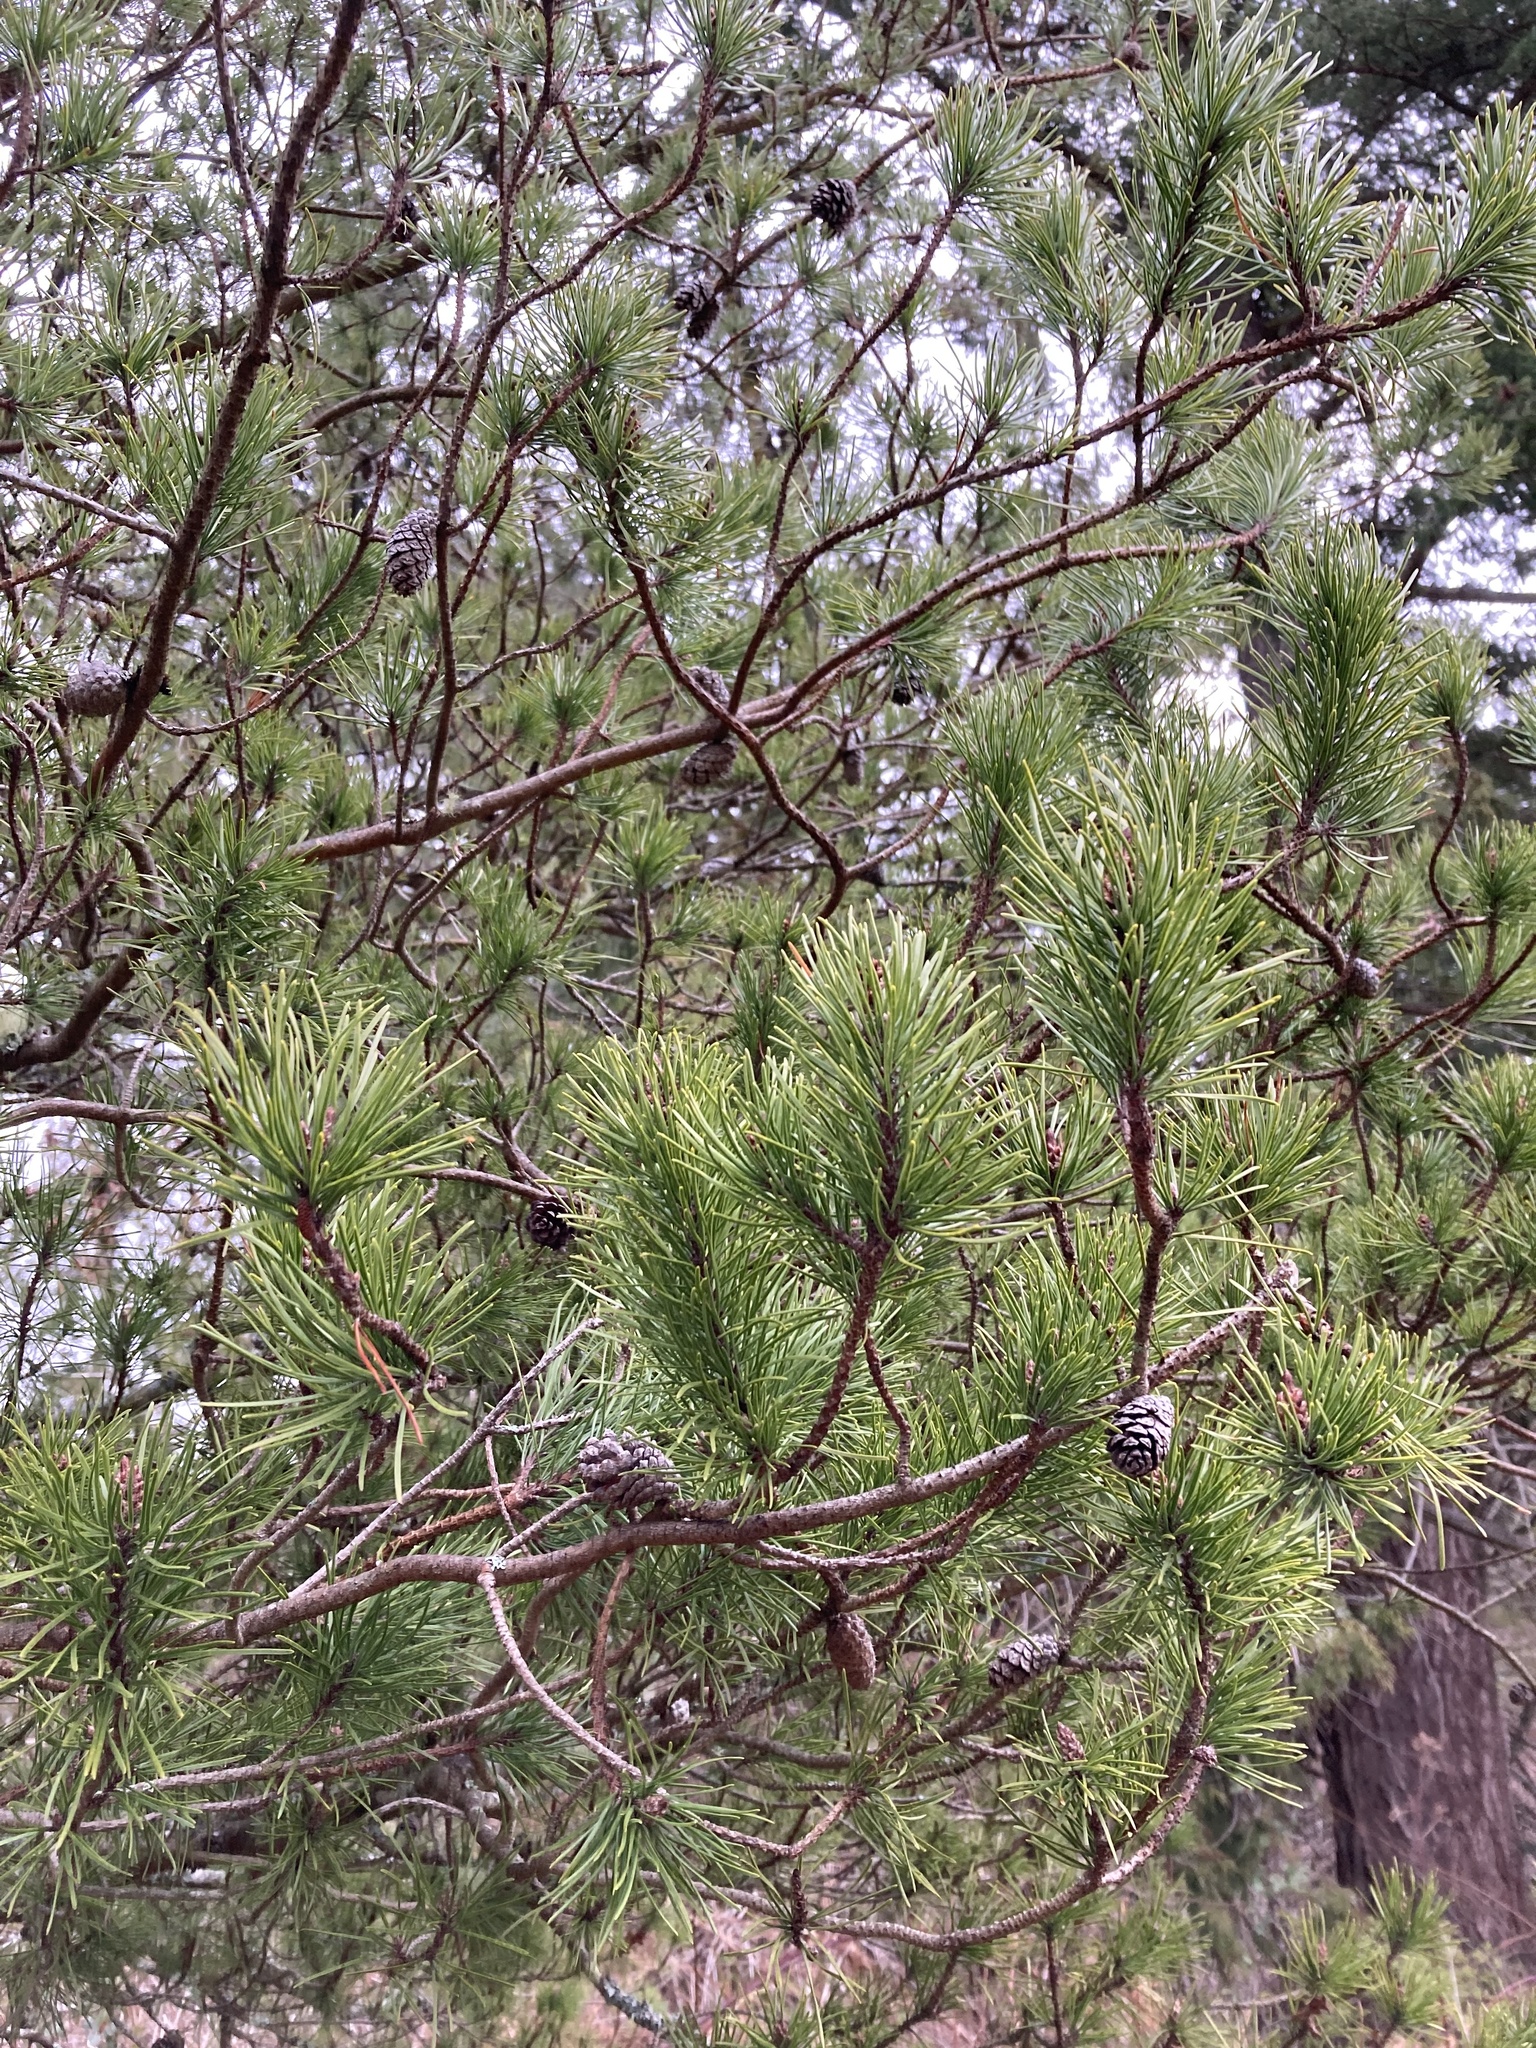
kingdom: Plantae
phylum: Tracheophyta
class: Pinopsida
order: Pinales
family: Pinaceae
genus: Pinus
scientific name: Pinus contorta
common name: Lodgepole pine
